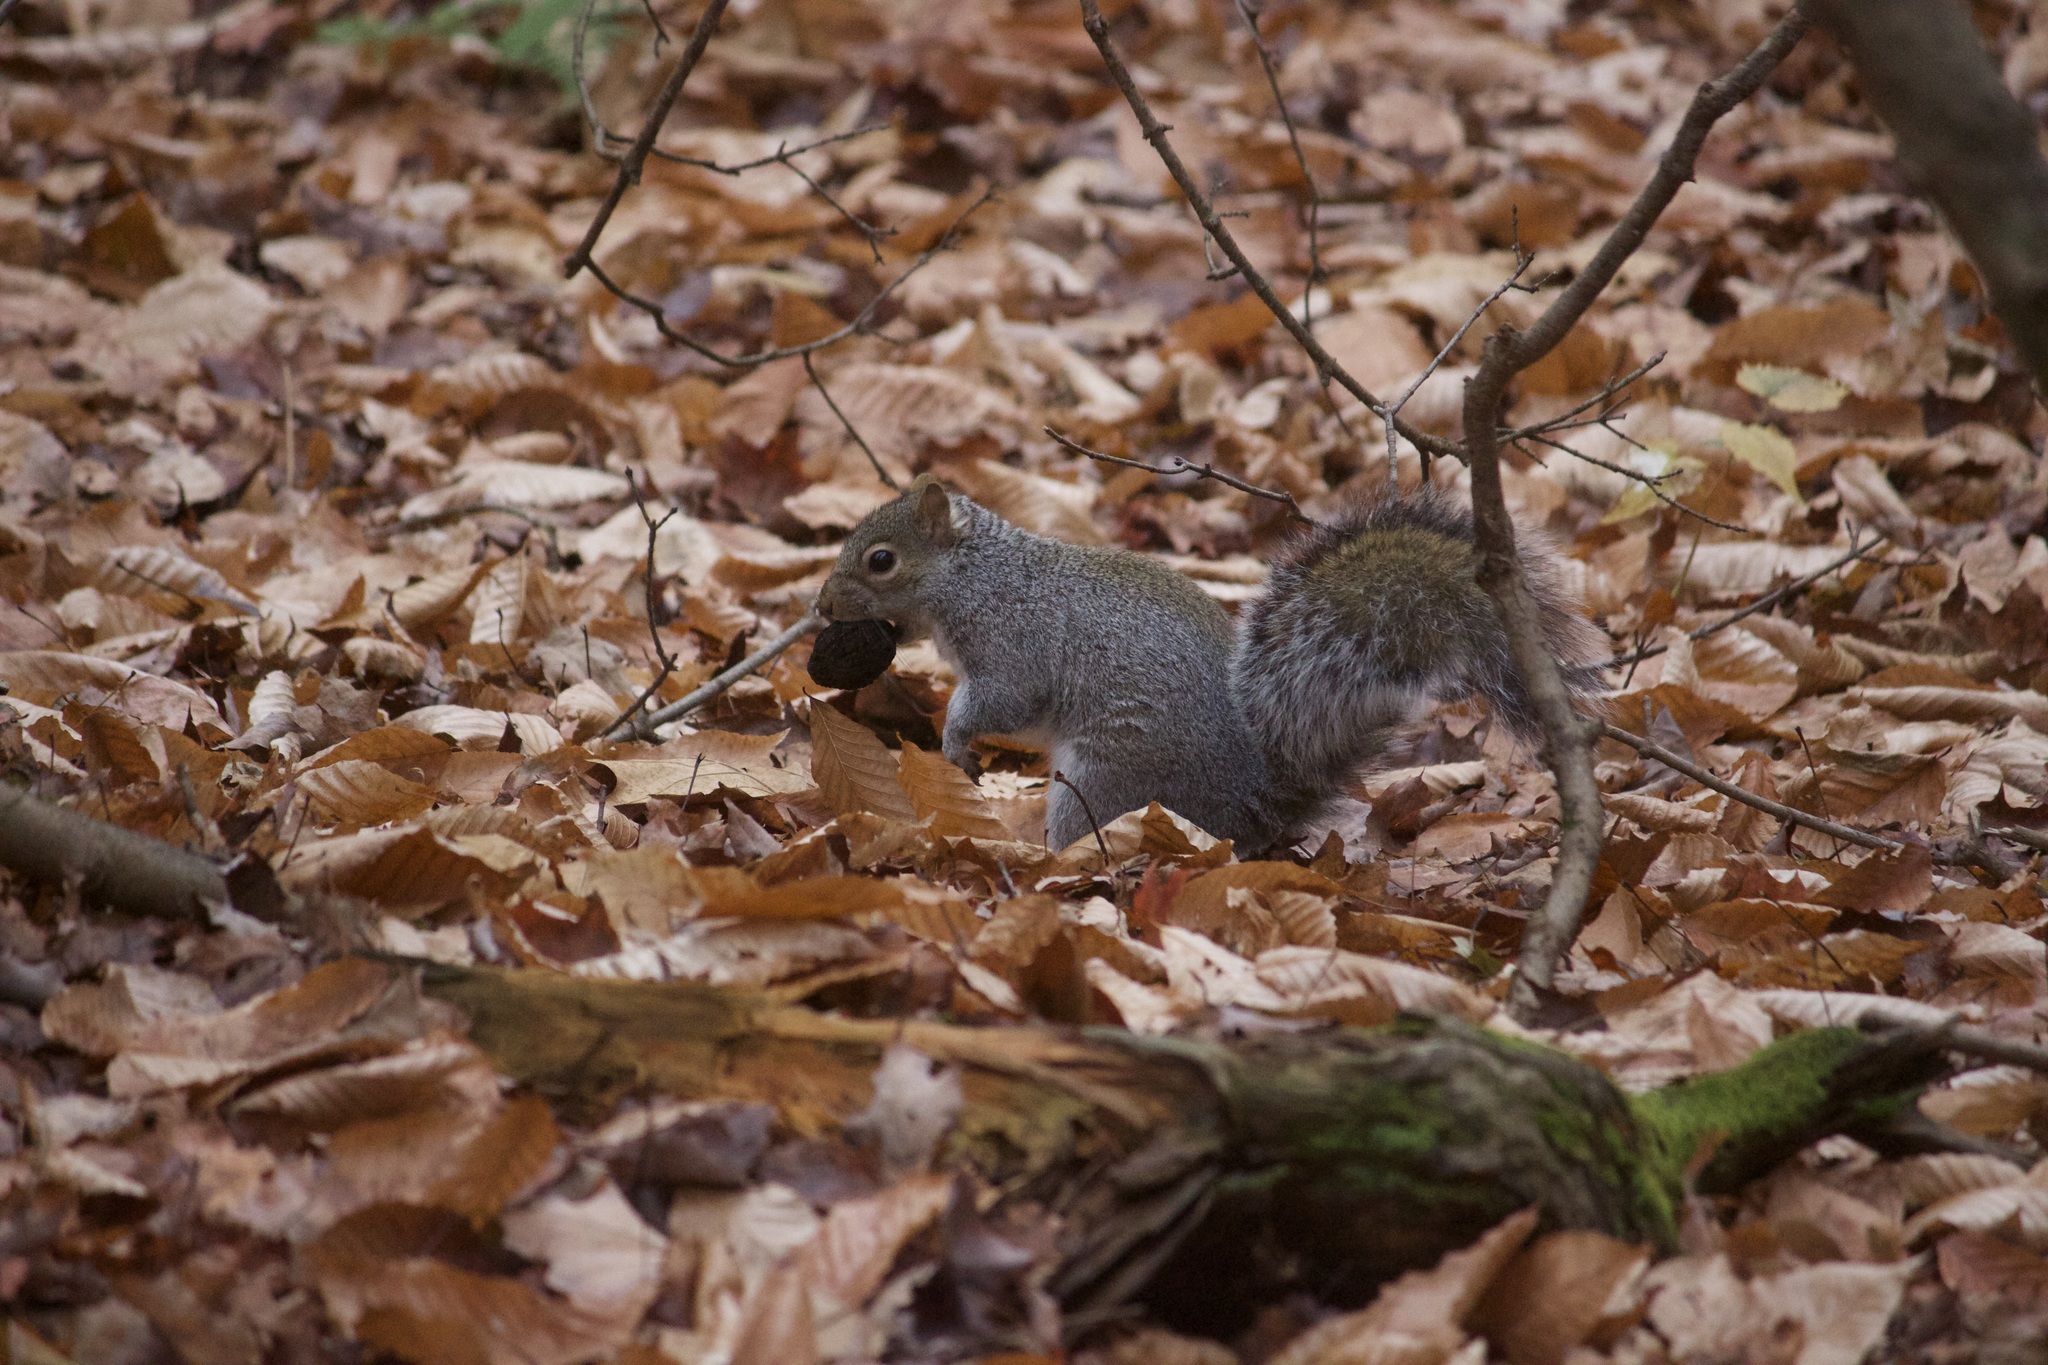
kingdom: Animalia
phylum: Chordata
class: Mammalia
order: Rodentia
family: Sciuridae
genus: Sciurus
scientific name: Sciurus carolinensis
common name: Eastern gray squirrel
